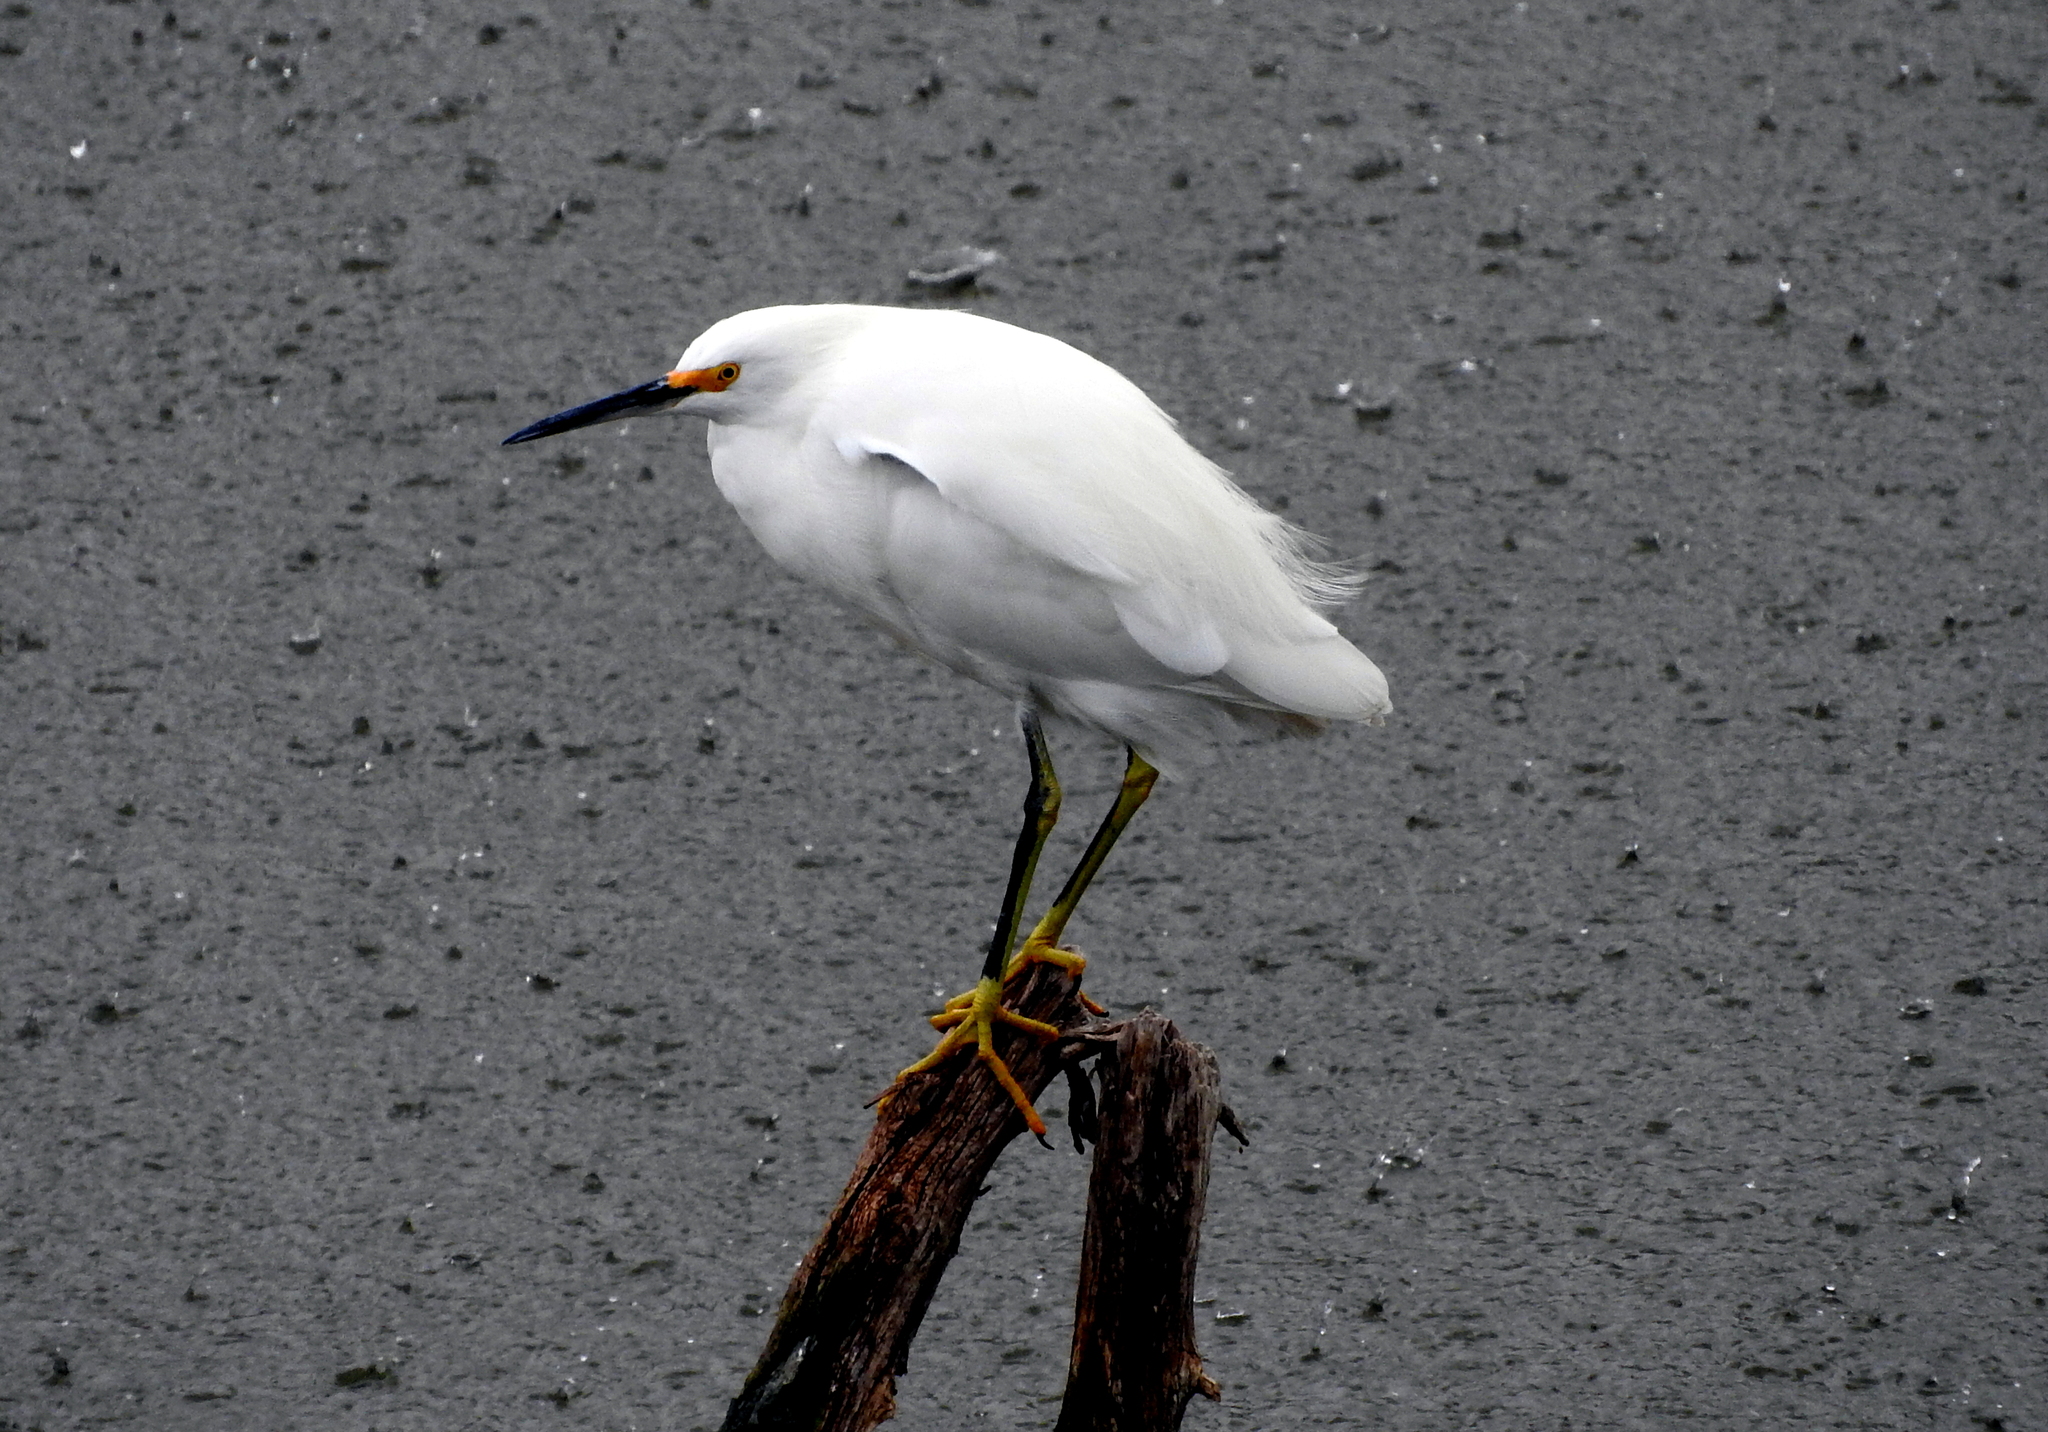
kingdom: Animalia
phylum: Chordata
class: Aves
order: Pelecaniformes
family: Ardeidae
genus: Egretta
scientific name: Egretta thula
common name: Snowy egret
